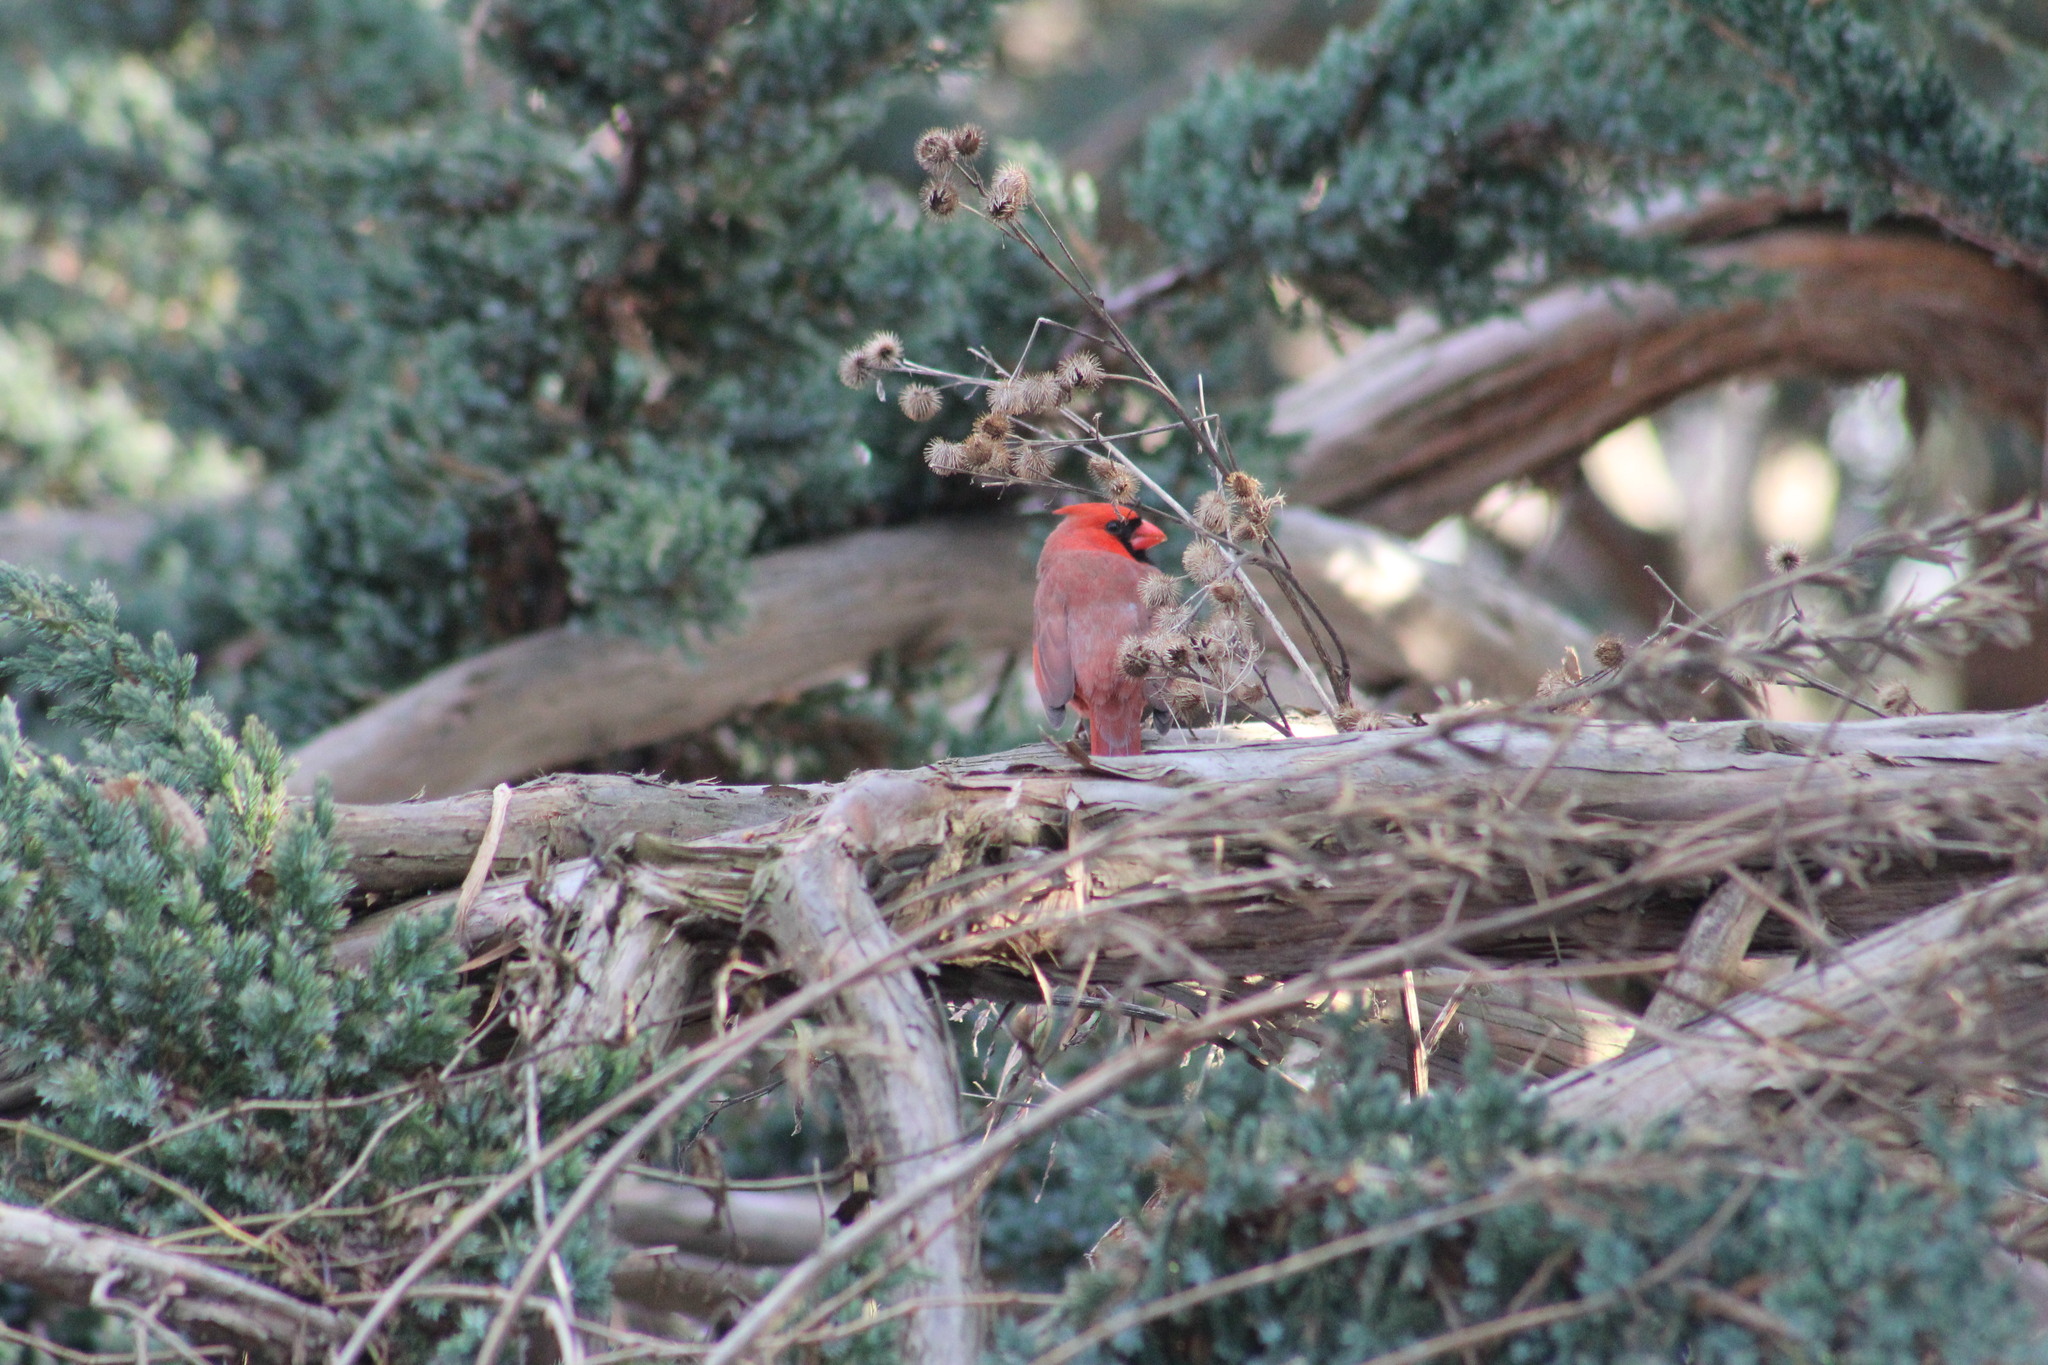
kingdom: Animalia
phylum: Chordata
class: Aves
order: Passeriformes
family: Cardinalidae
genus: Cardinalis
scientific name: Cardinalis cardinalis
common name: Northern cardinal
